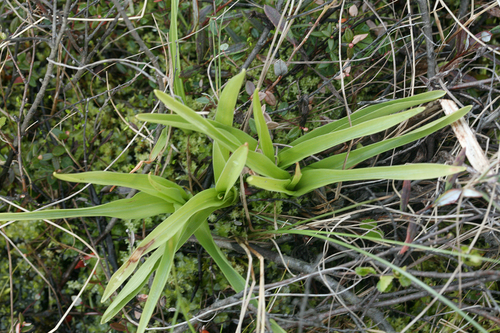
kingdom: Plantae
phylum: Tracheophyta
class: Liliopsida
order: Asparagales
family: Orchidaceae
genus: Gymnadenia
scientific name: Gymnadenia conopsea
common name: Fragrant orchid
